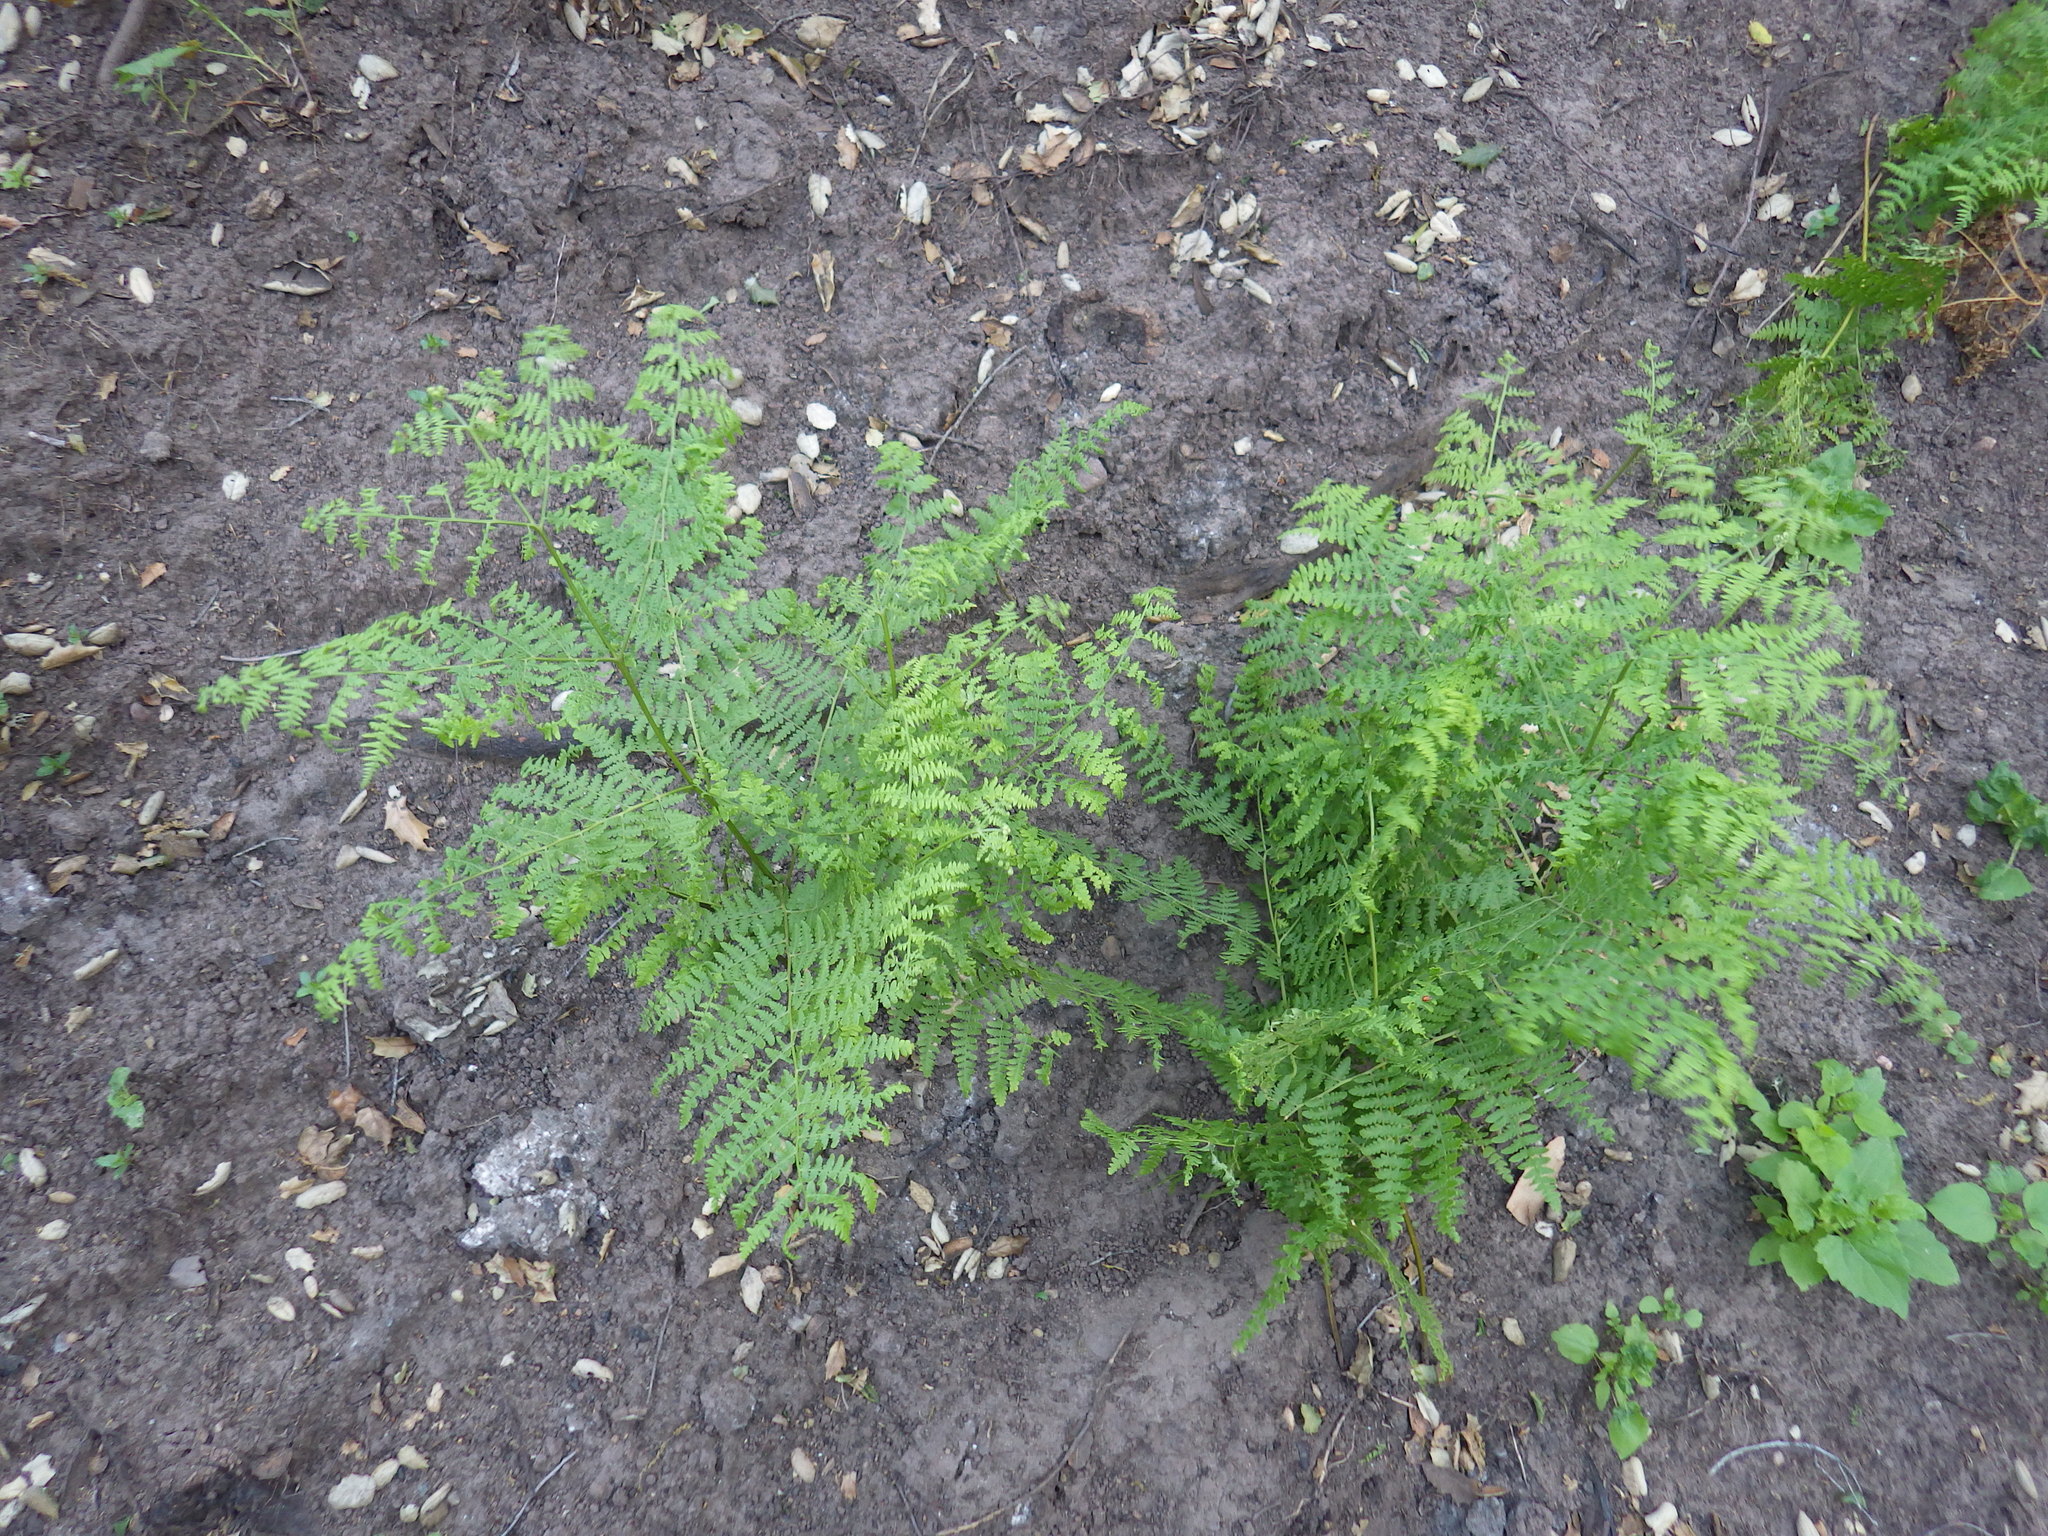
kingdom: Plantae
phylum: Tracheophyta
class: Polypodiopsida
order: Polypodiales
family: Dennstaedtiaceae
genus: Pteridium
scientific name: Pteridium aquilinum
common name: Bracken
